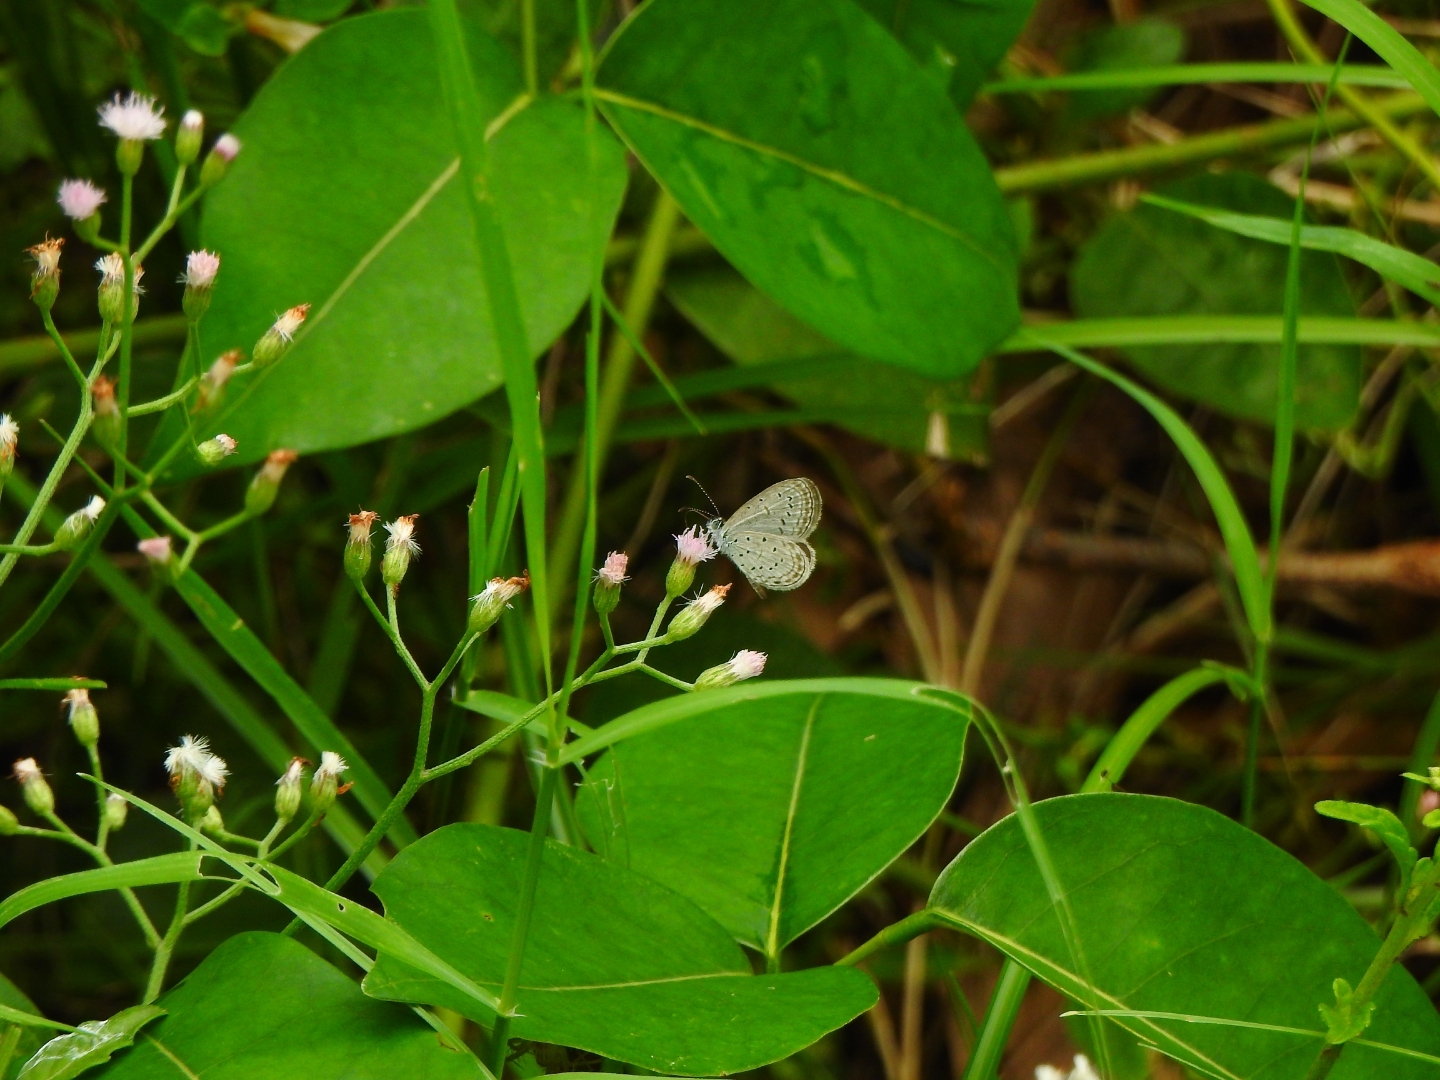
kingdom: Animalia
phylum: Arthropoda
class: Insecta
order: Lepidoptera
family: Lycaenidae
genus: Zizula
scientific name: Zizula hylax
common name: Gaika blue
